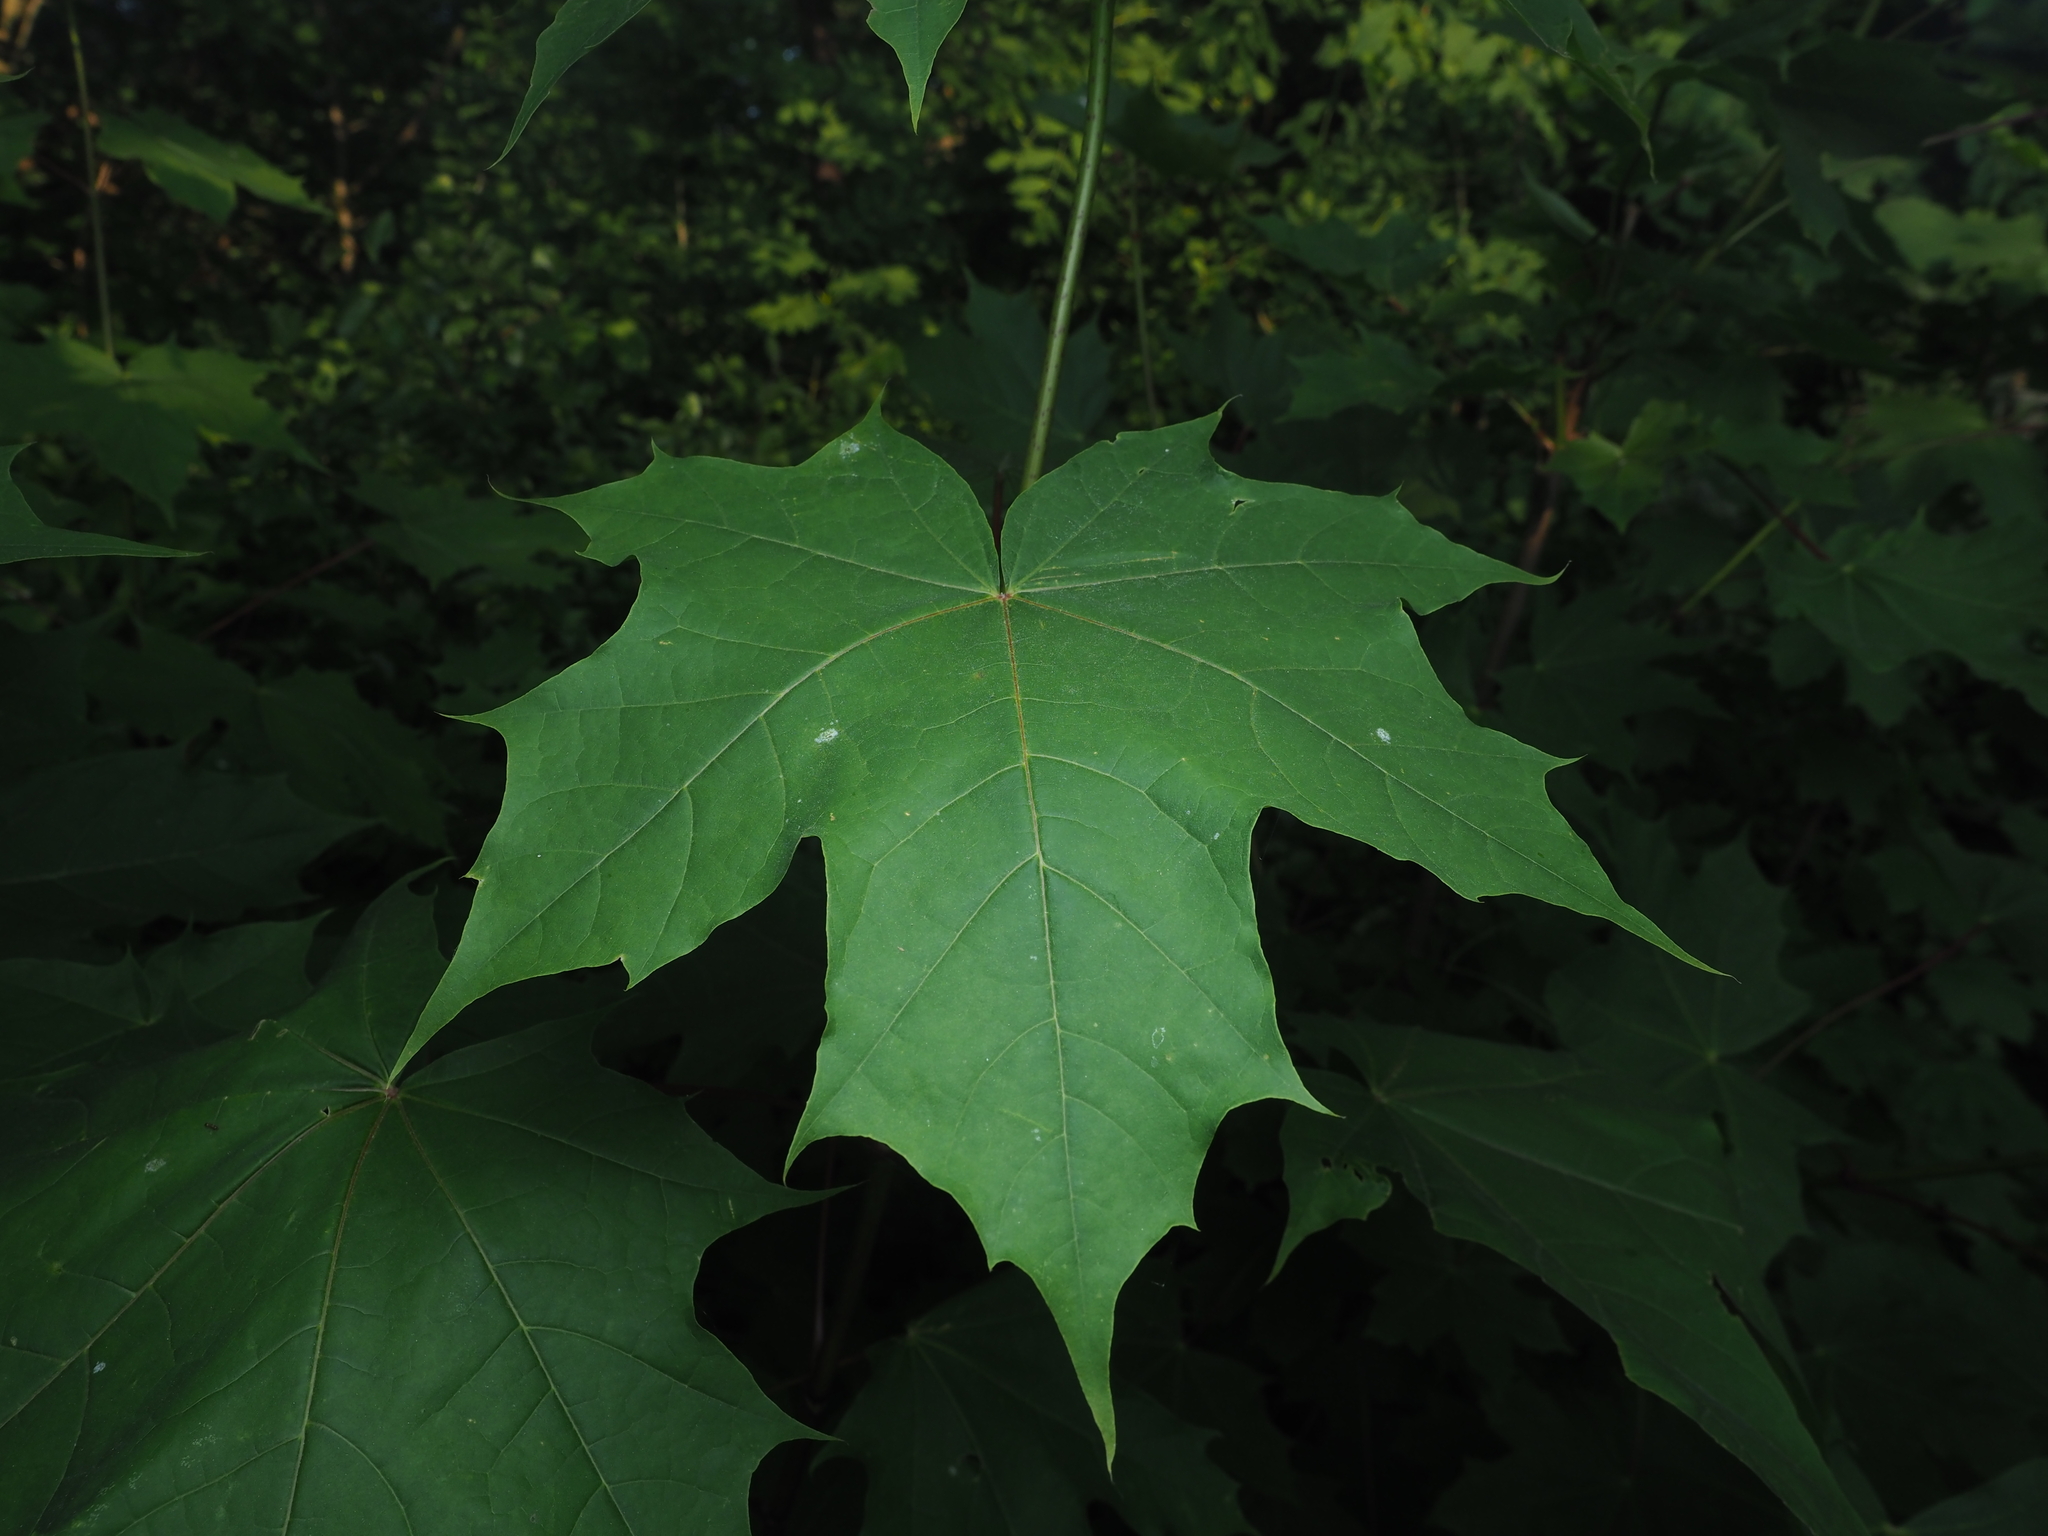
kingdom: Plantae
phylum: Tracheophyta
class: Magnoliopsida
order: Sapindales
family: Sapindaceae
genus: Acer
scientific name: Acer platanoides
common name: Norway maple
